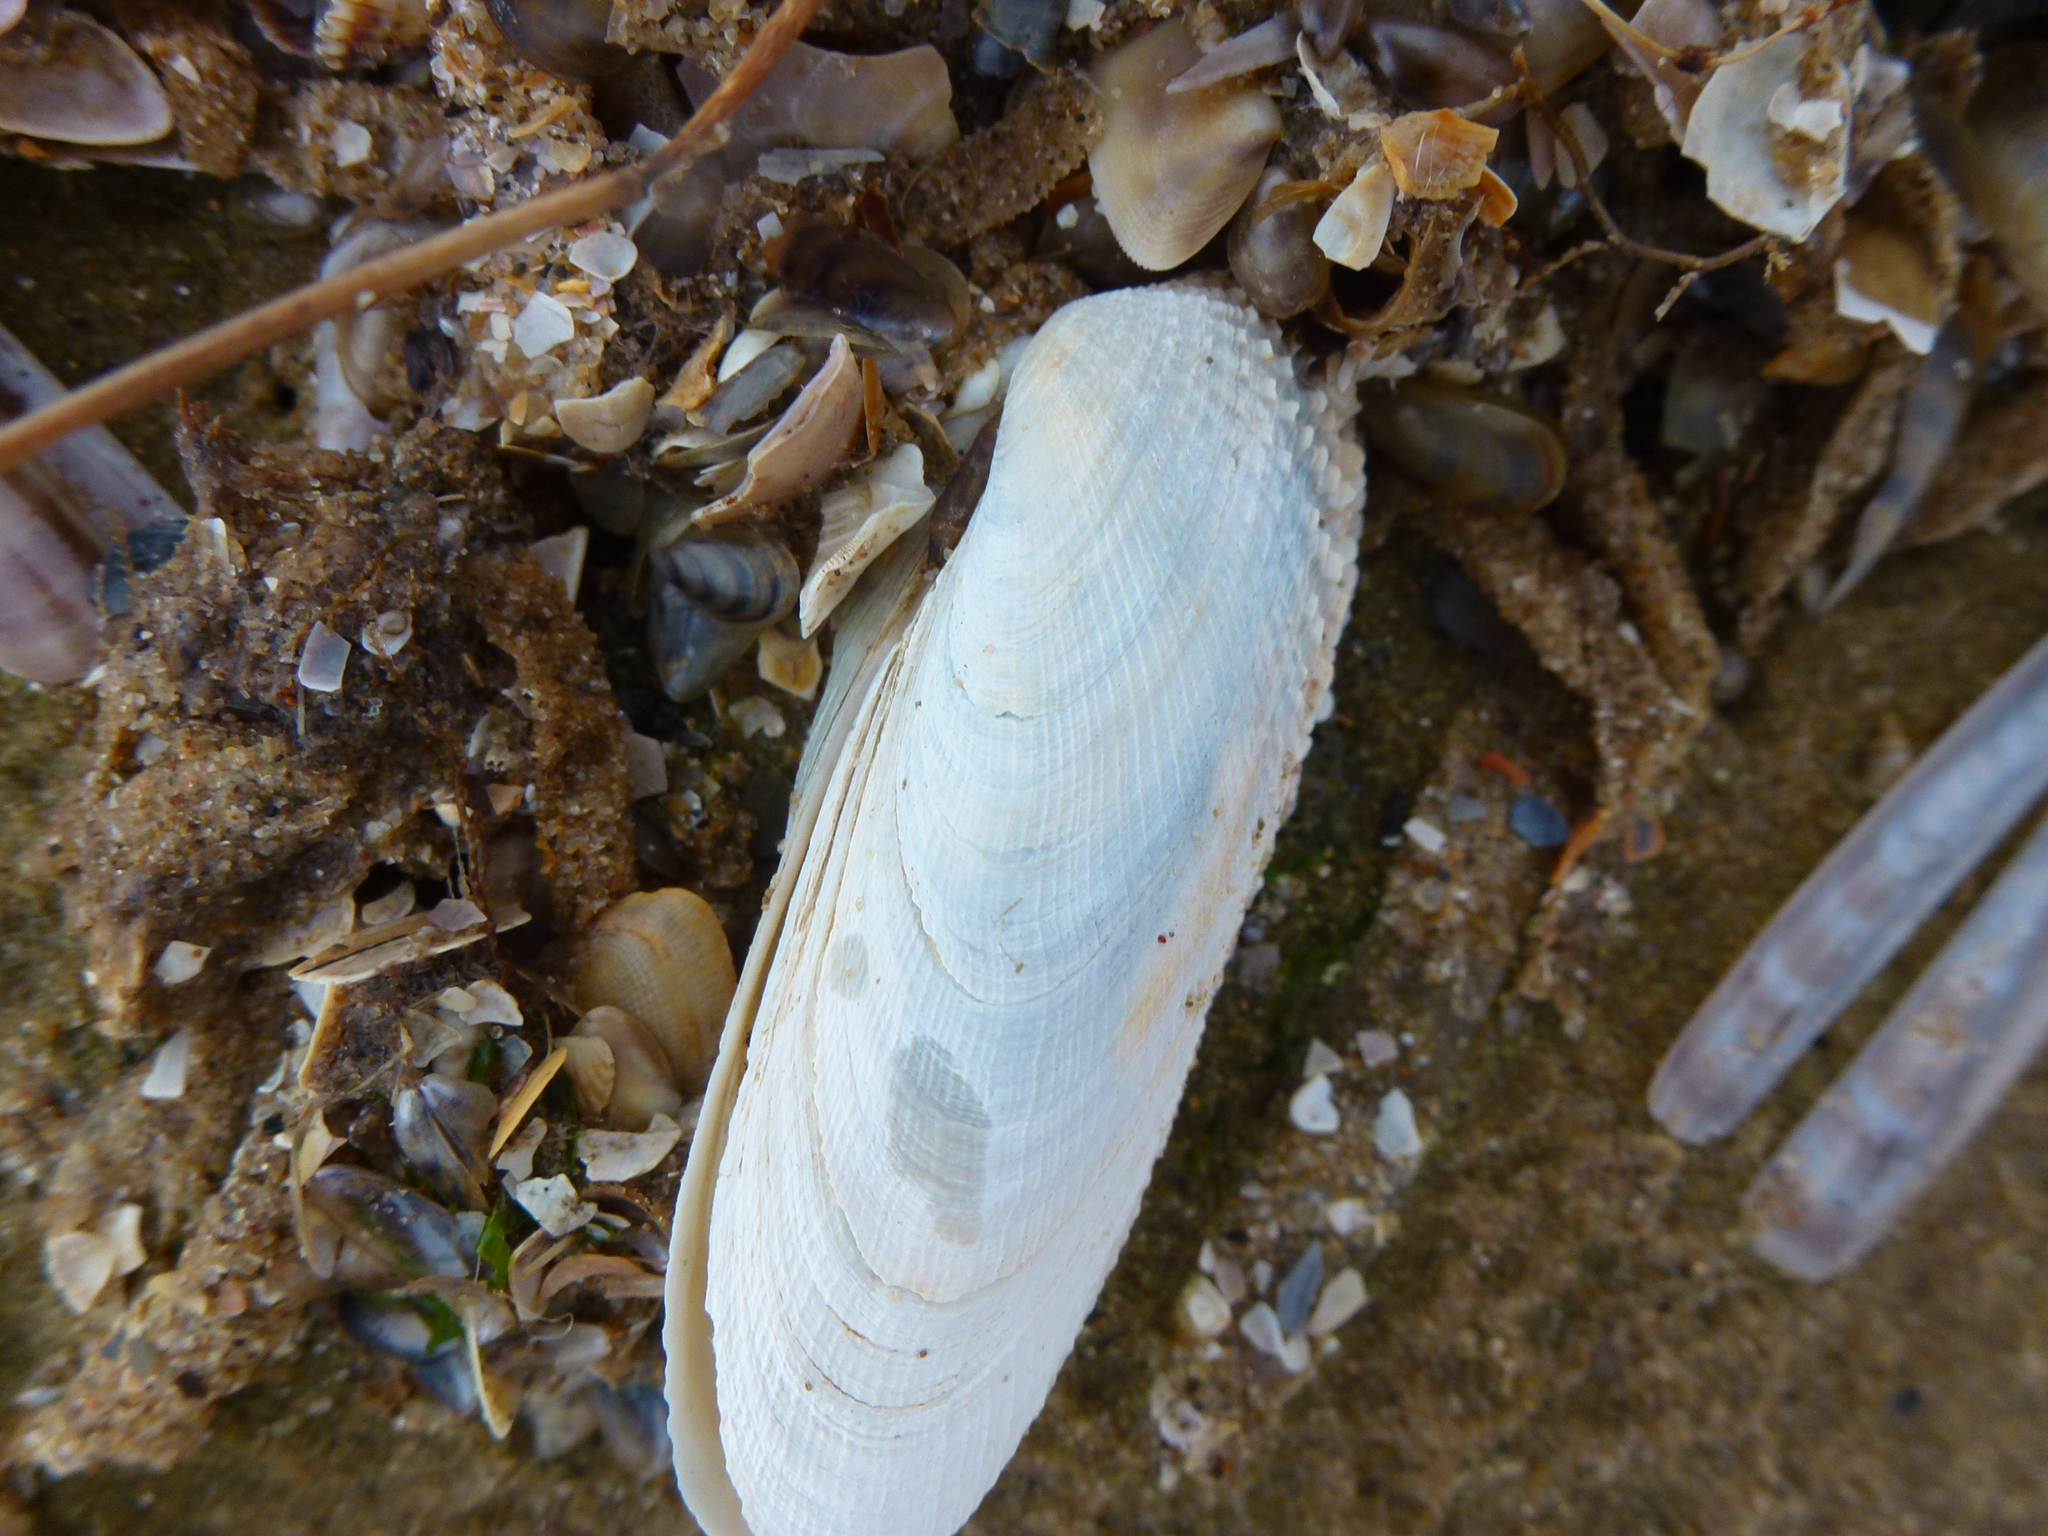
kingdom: Animalia
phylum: Mollusca
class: Bivalvia
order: Venerida
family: Veneridae
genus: Petricolaria
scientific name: Petricolaria pholadiformis
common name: American piddock
